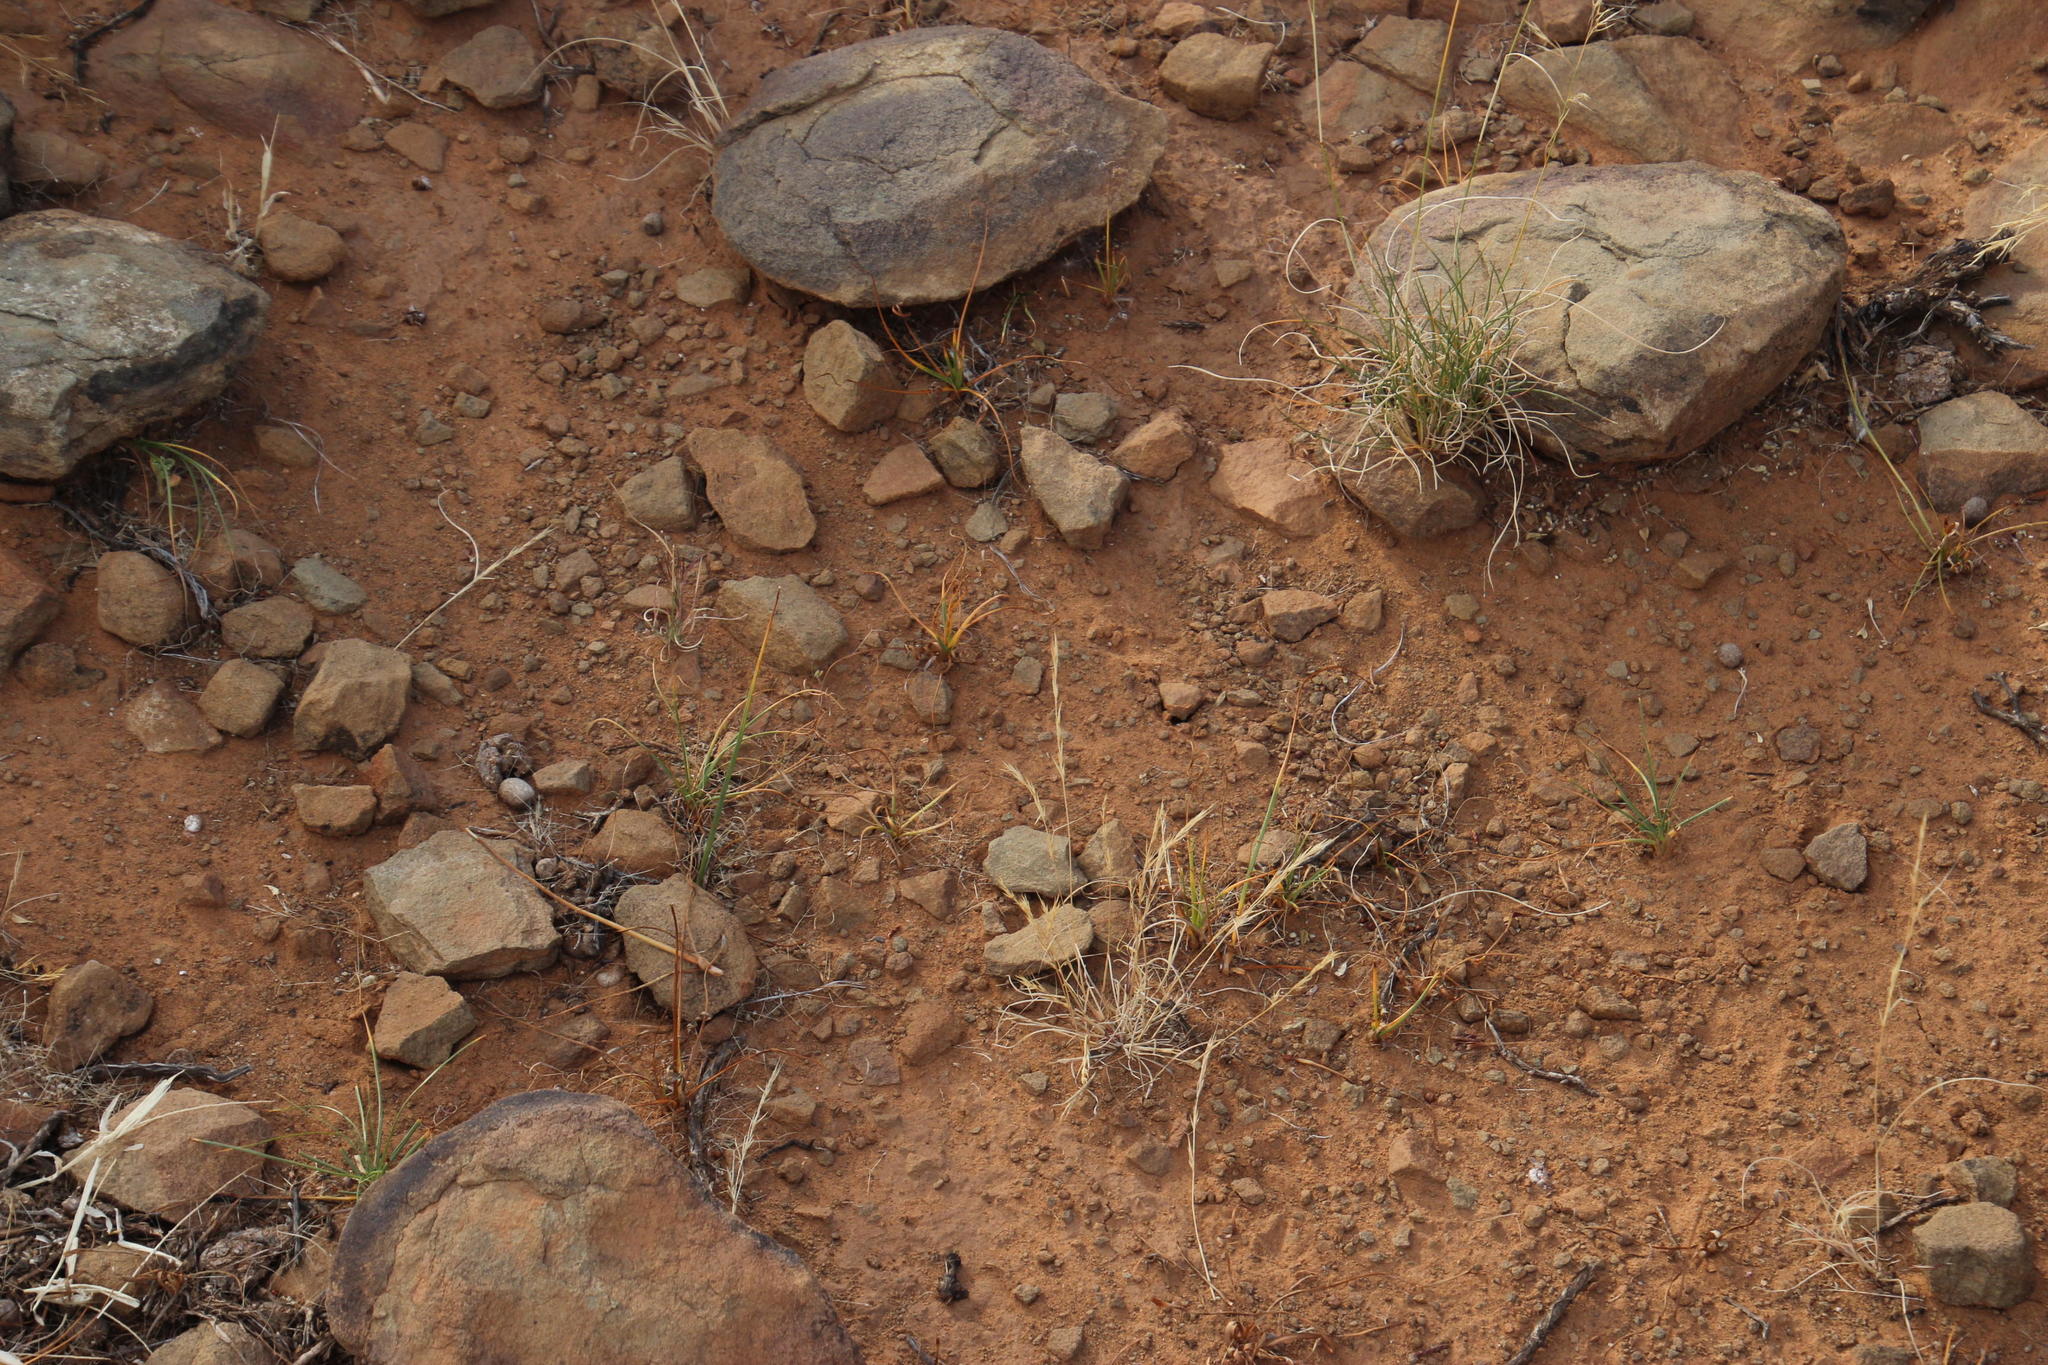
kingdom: Plantae
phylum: Tracheophyta
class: Liliopsida
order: Poales
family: Cyperaceae
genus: Cyperus
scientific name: Cyperus usitatus
